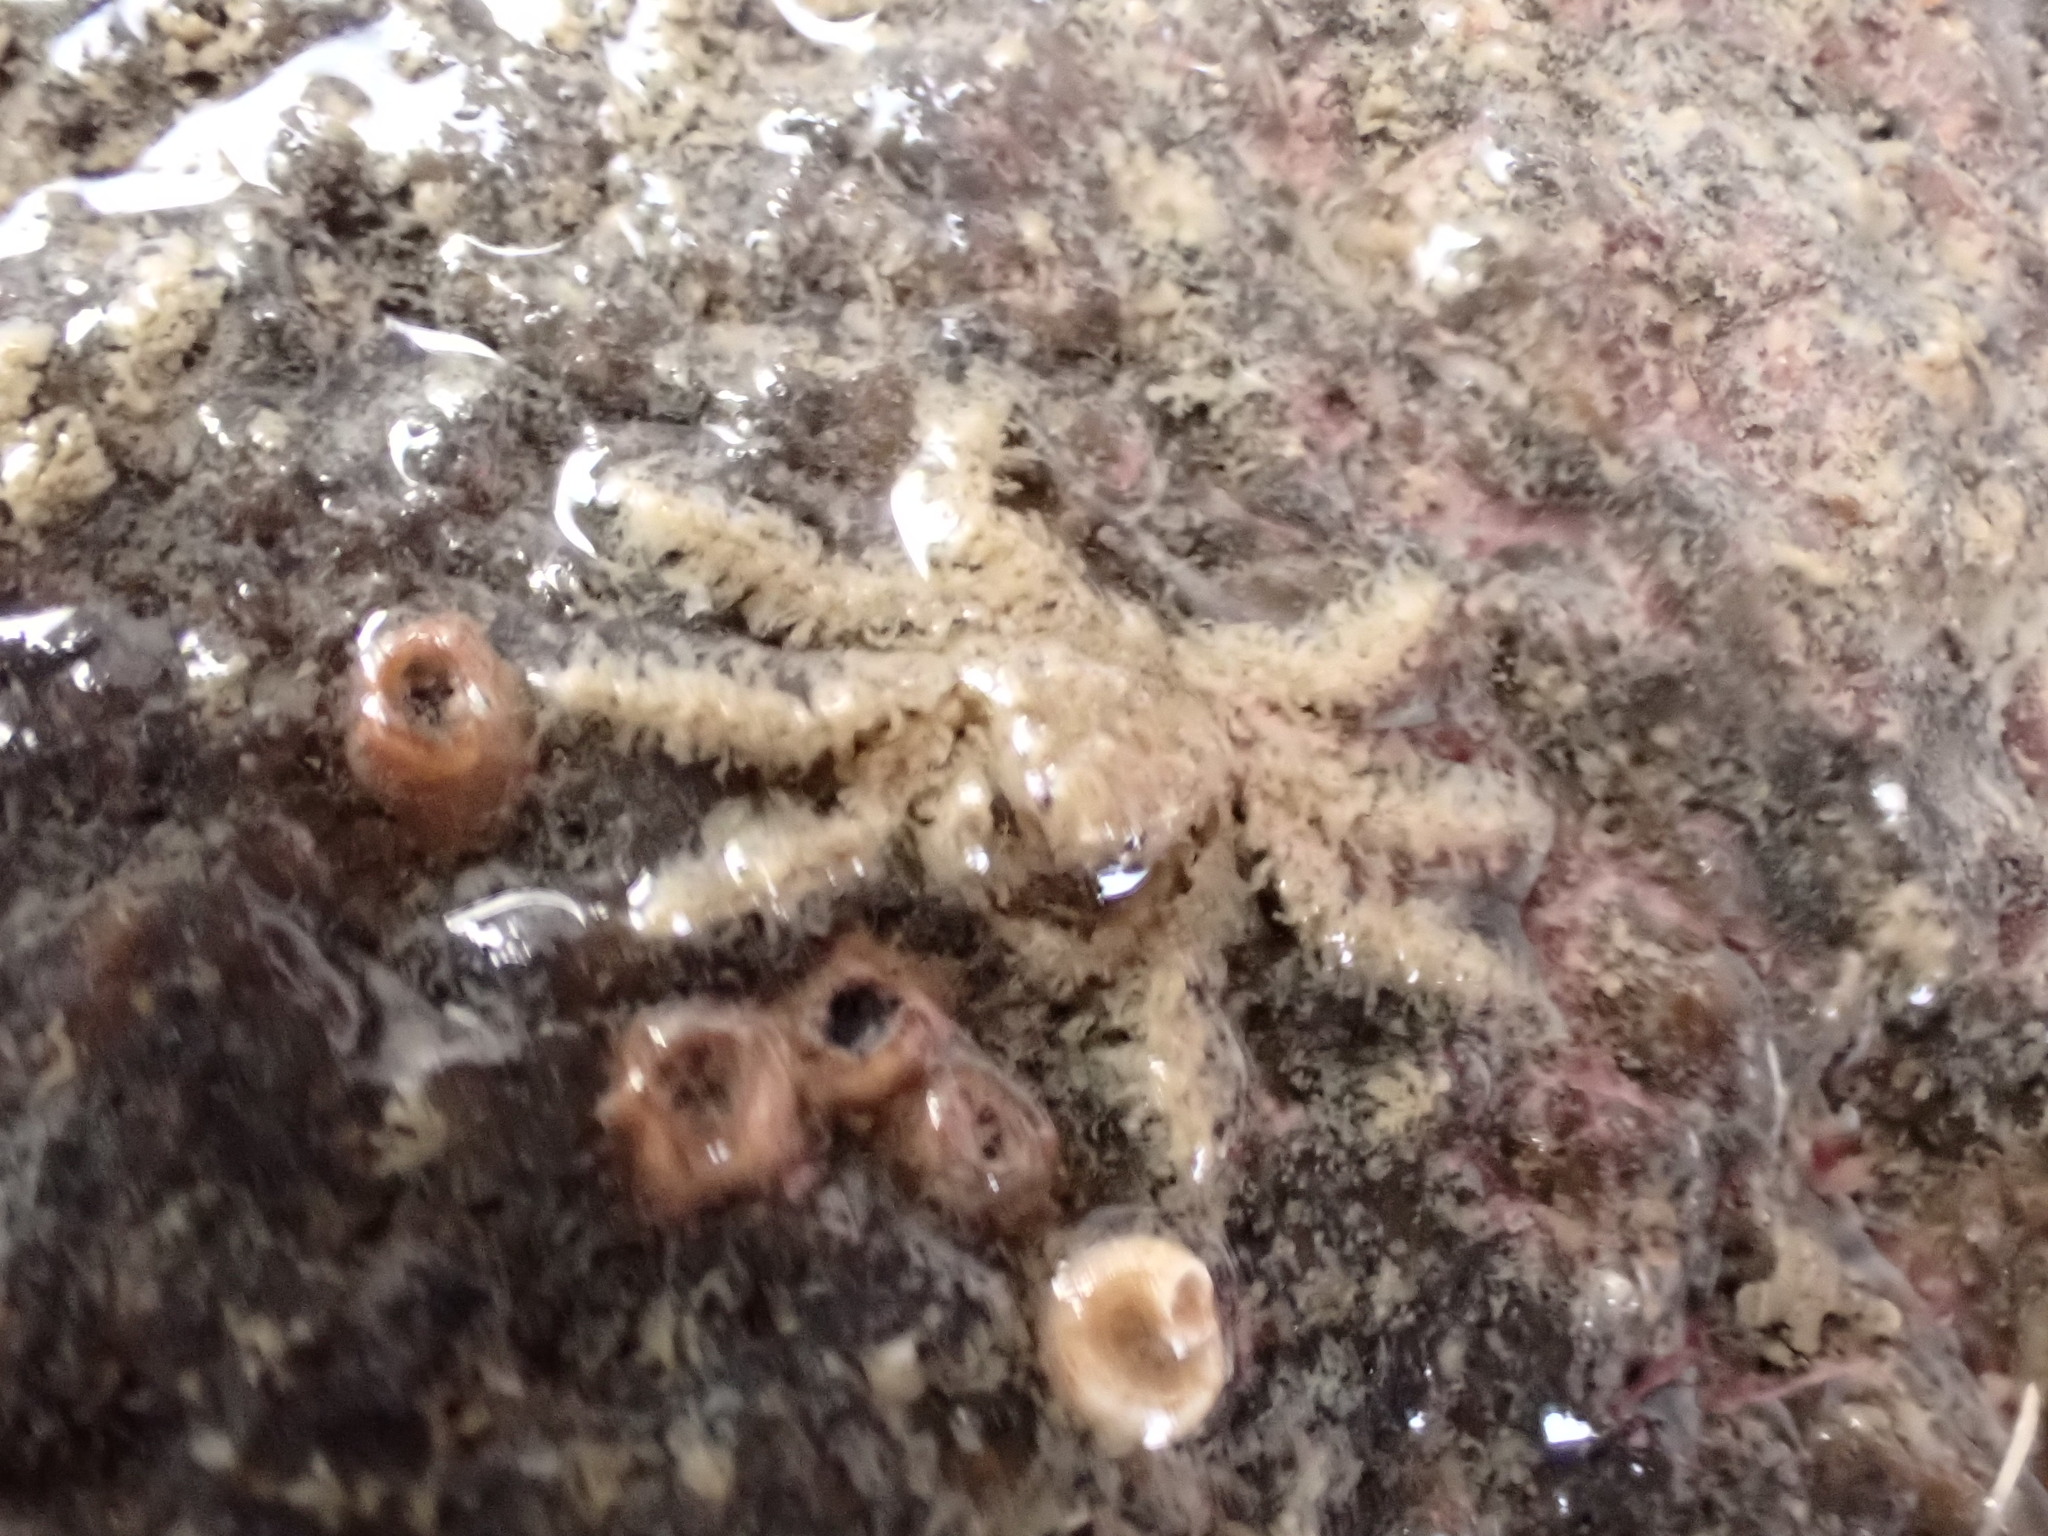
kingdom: Animalia
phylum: Arthropoda
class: Malacostraca
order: Decapoda
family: Hymenosomatidae
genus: Neohymenicus
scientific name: Neohymenicus pubescens
